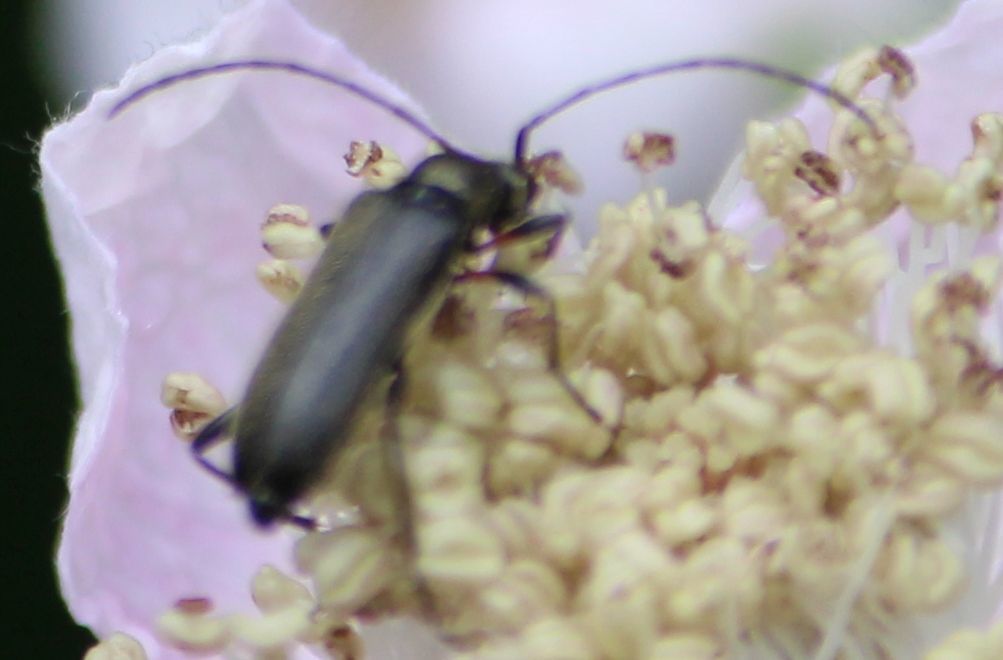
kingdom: Animalia
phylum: Arthropoda
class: Insecta
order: Coleoptera
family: Cerambycidae
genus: Grammoptera
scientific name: Grammoptera ruficornis
